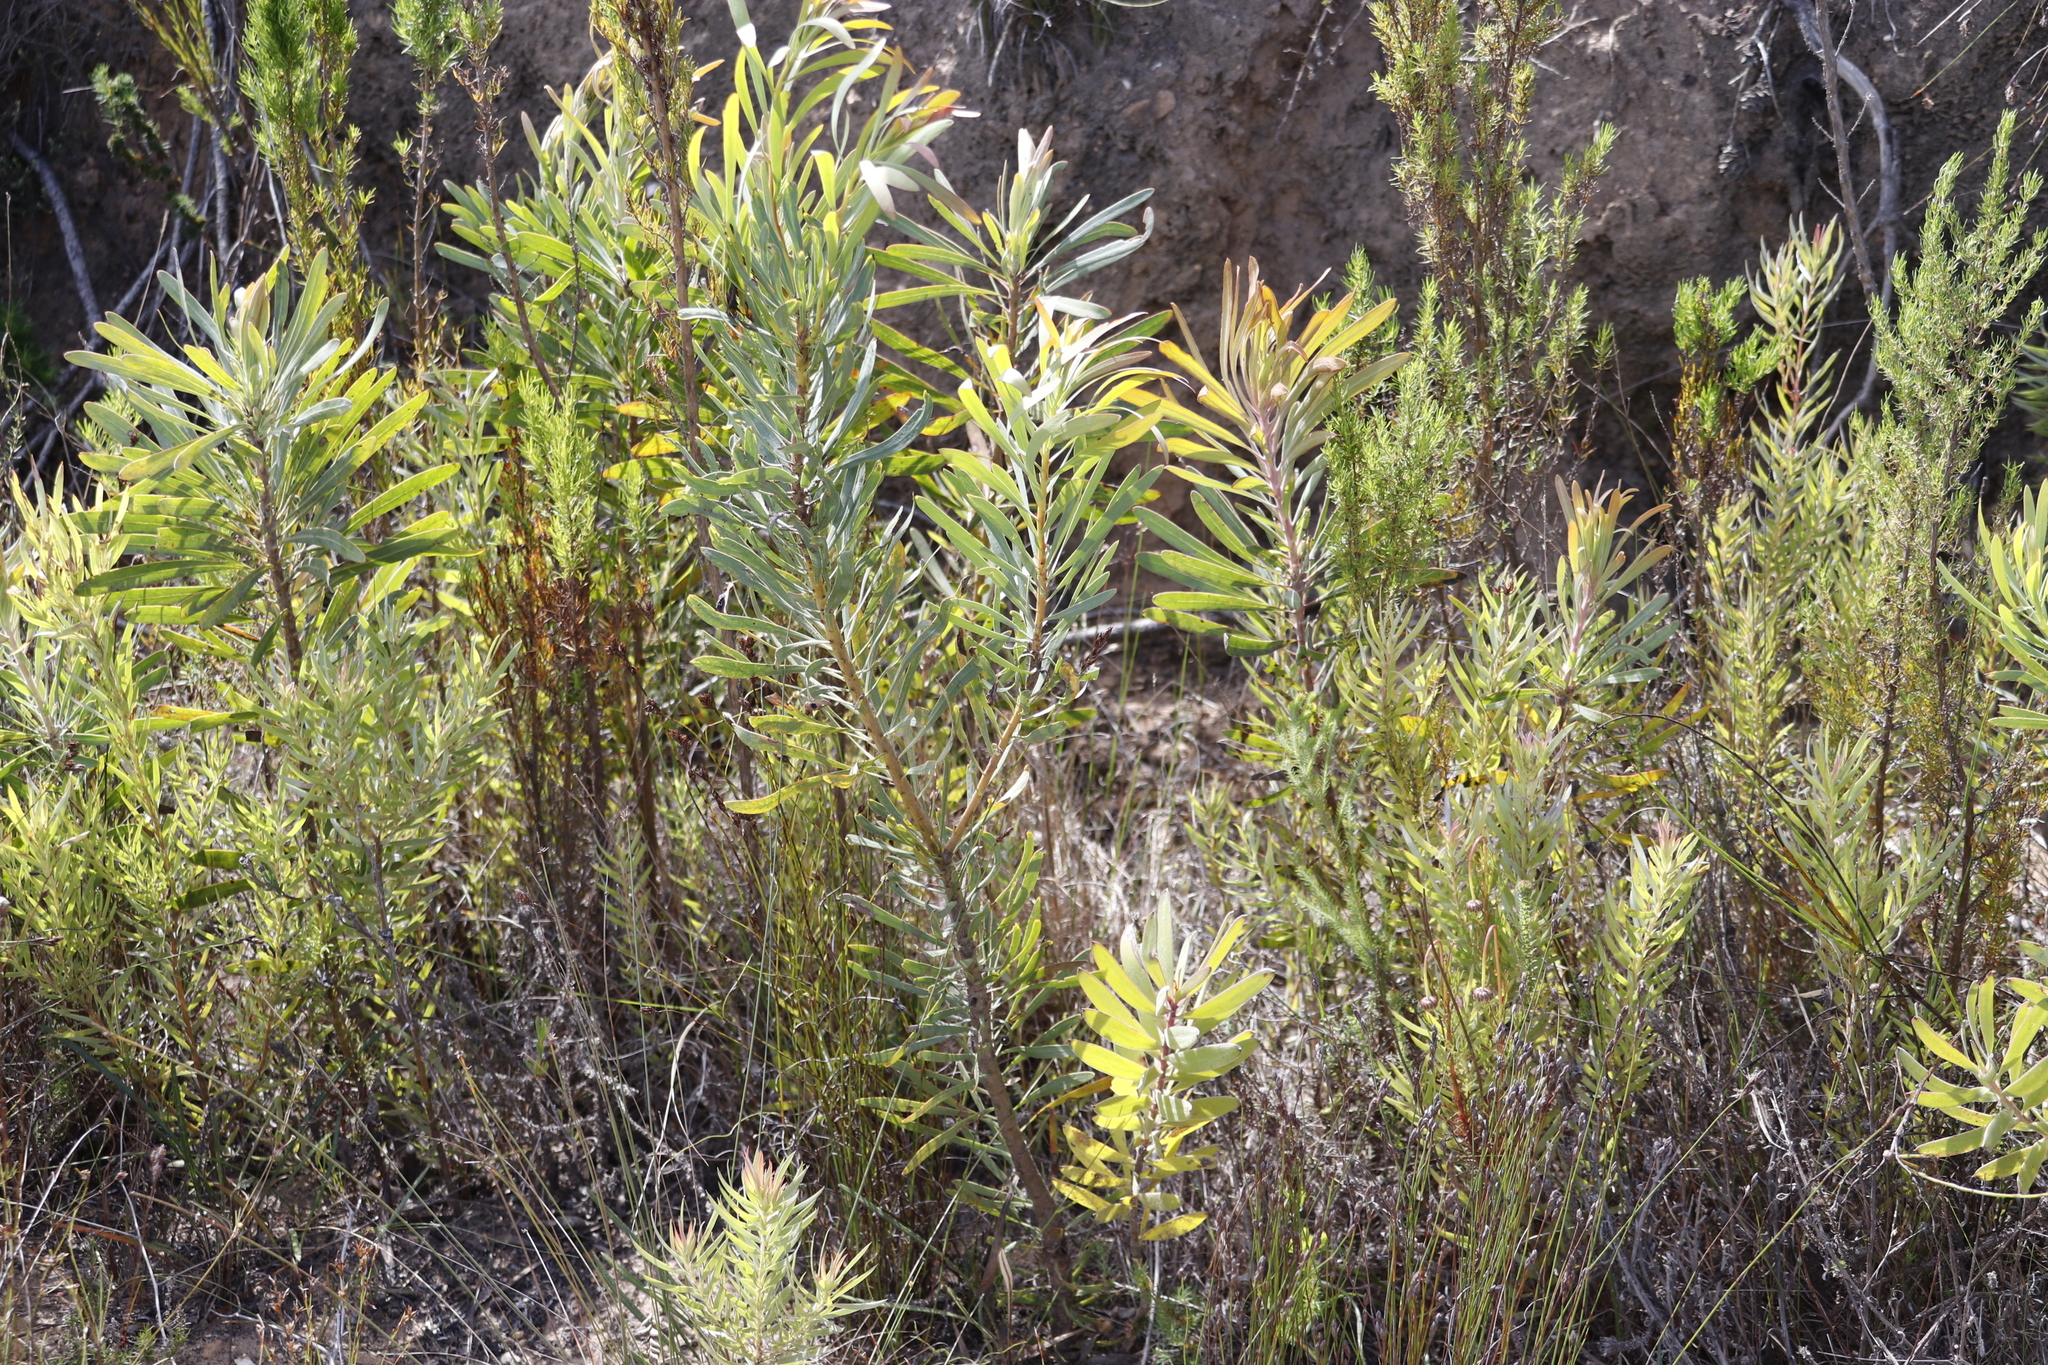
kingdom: Plantae
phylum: Tracheophyta
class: Magnoliopsida
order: Proteales
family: Proteaceae
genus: Protea
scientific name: Protea longifolia
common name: Long-leaf sugarbush
